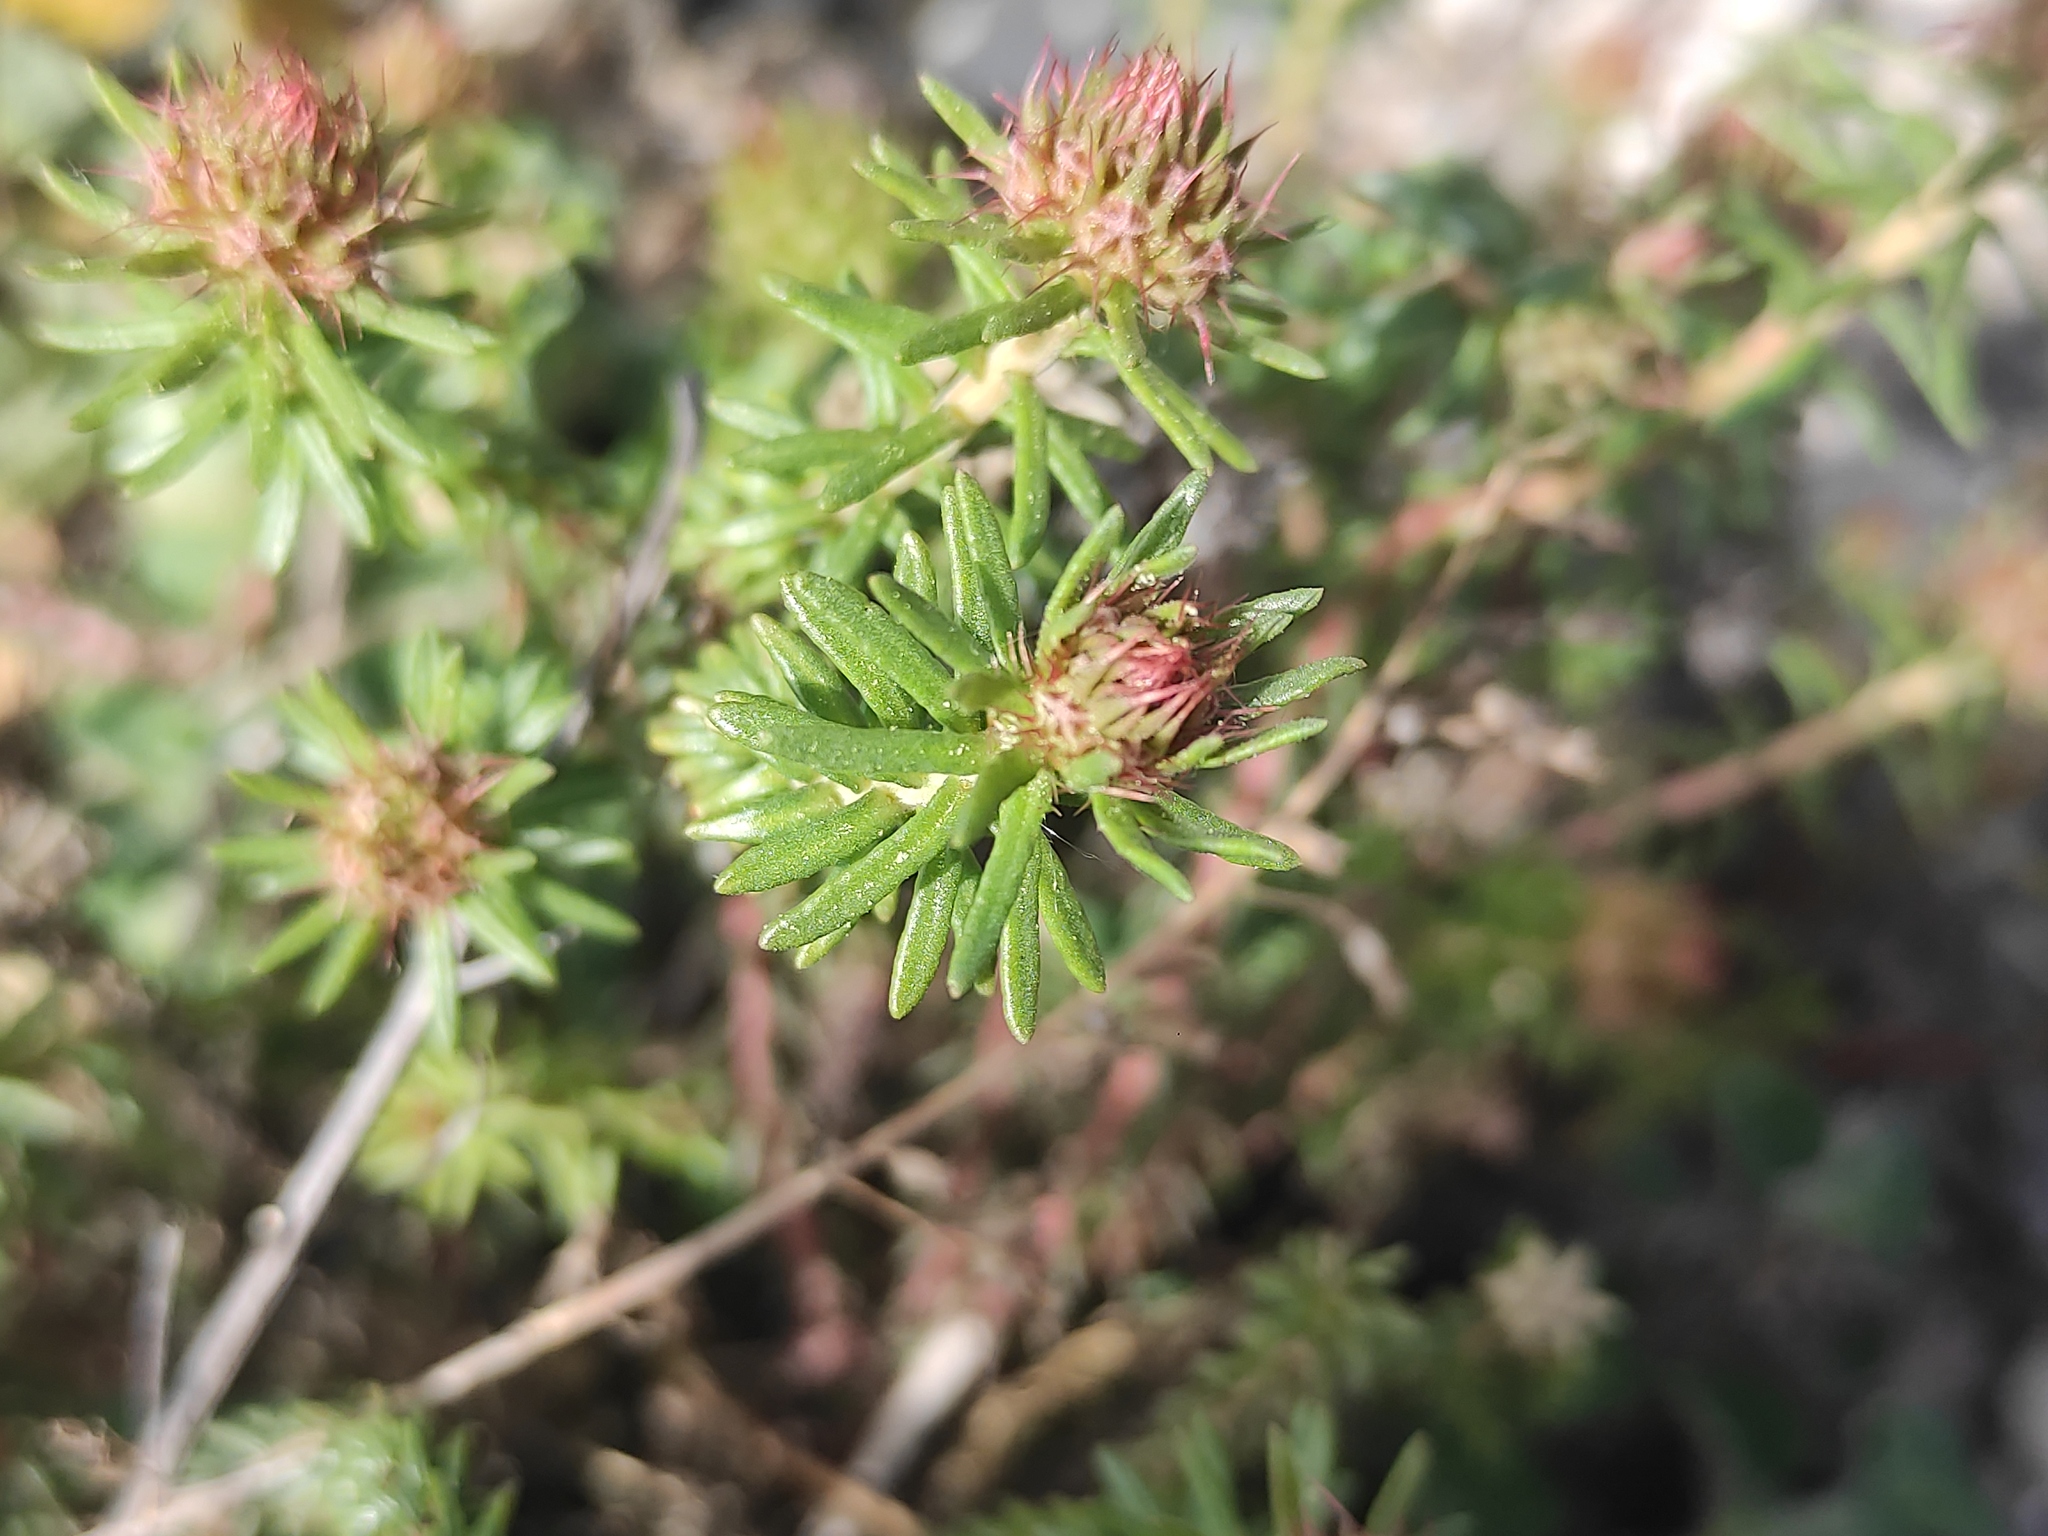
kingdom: Plantae
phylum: Tracheophyta
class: Magnoliopsida
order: Ericales
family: Primulaceae
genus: Coris
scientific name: Coris monspeliensis
